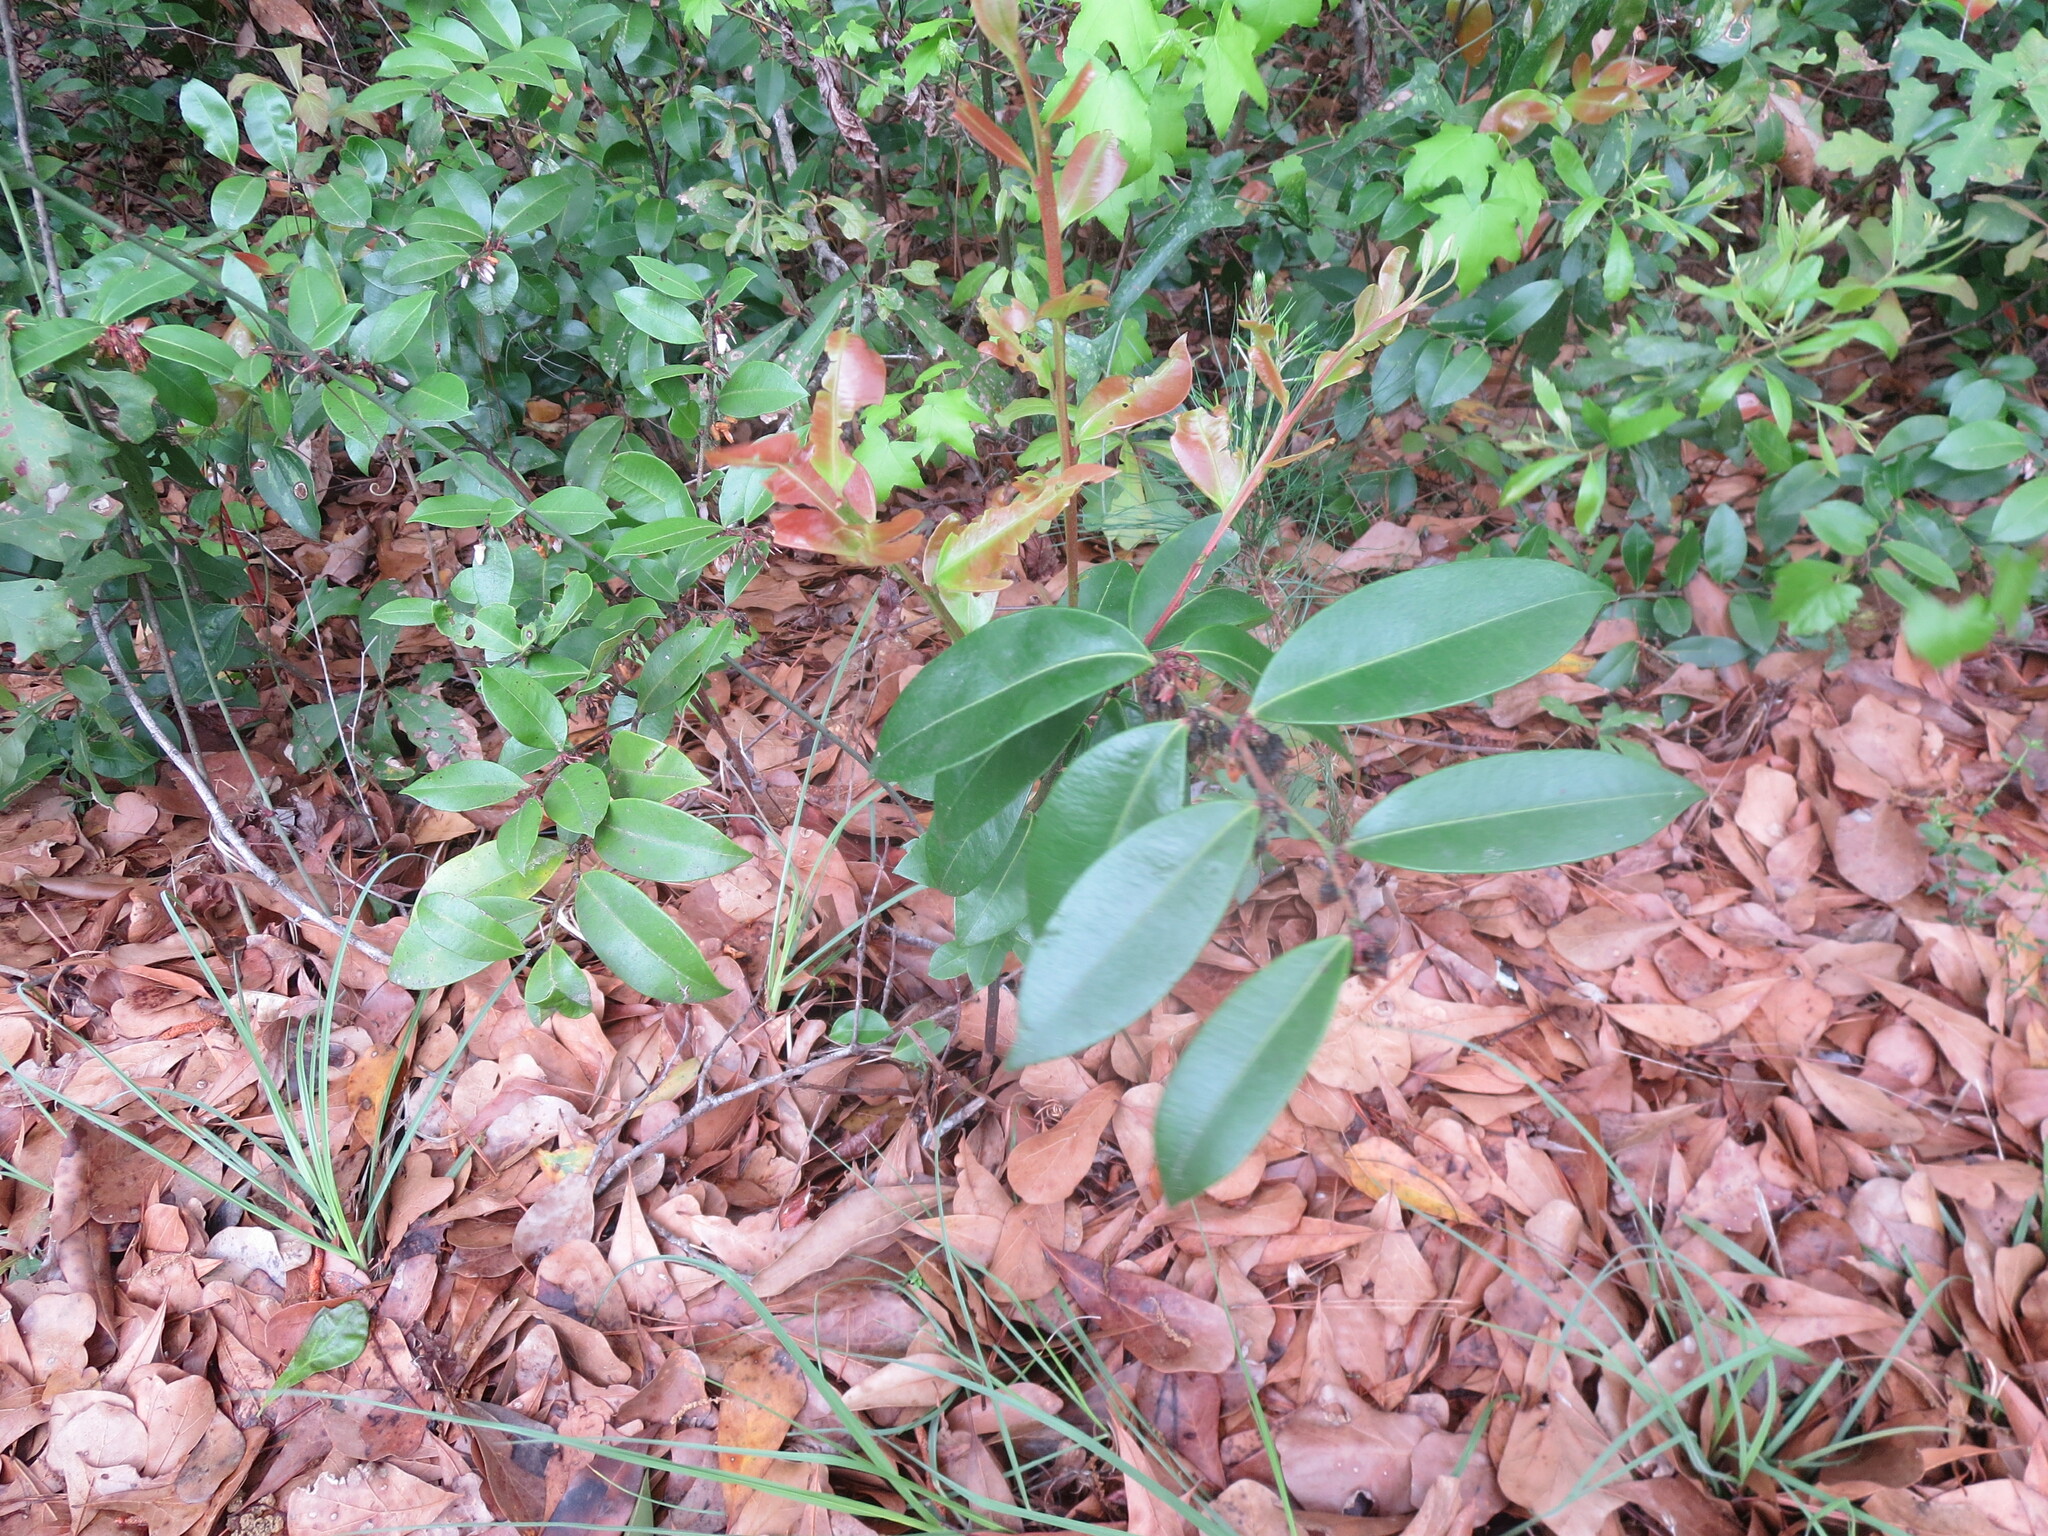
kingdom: Plantae
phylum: Tracheophyta
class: Magnoliopsida
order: Ericales
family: Ericaceae
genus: Lyonia
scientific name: Lyonia lucida
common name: Fetterbush
